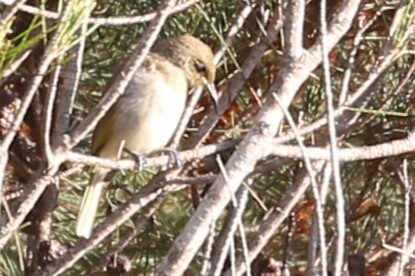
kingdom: Animalia
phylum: Chordata
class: Aves
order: Passeriformes
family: Meliphagidae
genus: Lichmera
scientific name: Lichmera indistincta
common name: Brown honeyeater
